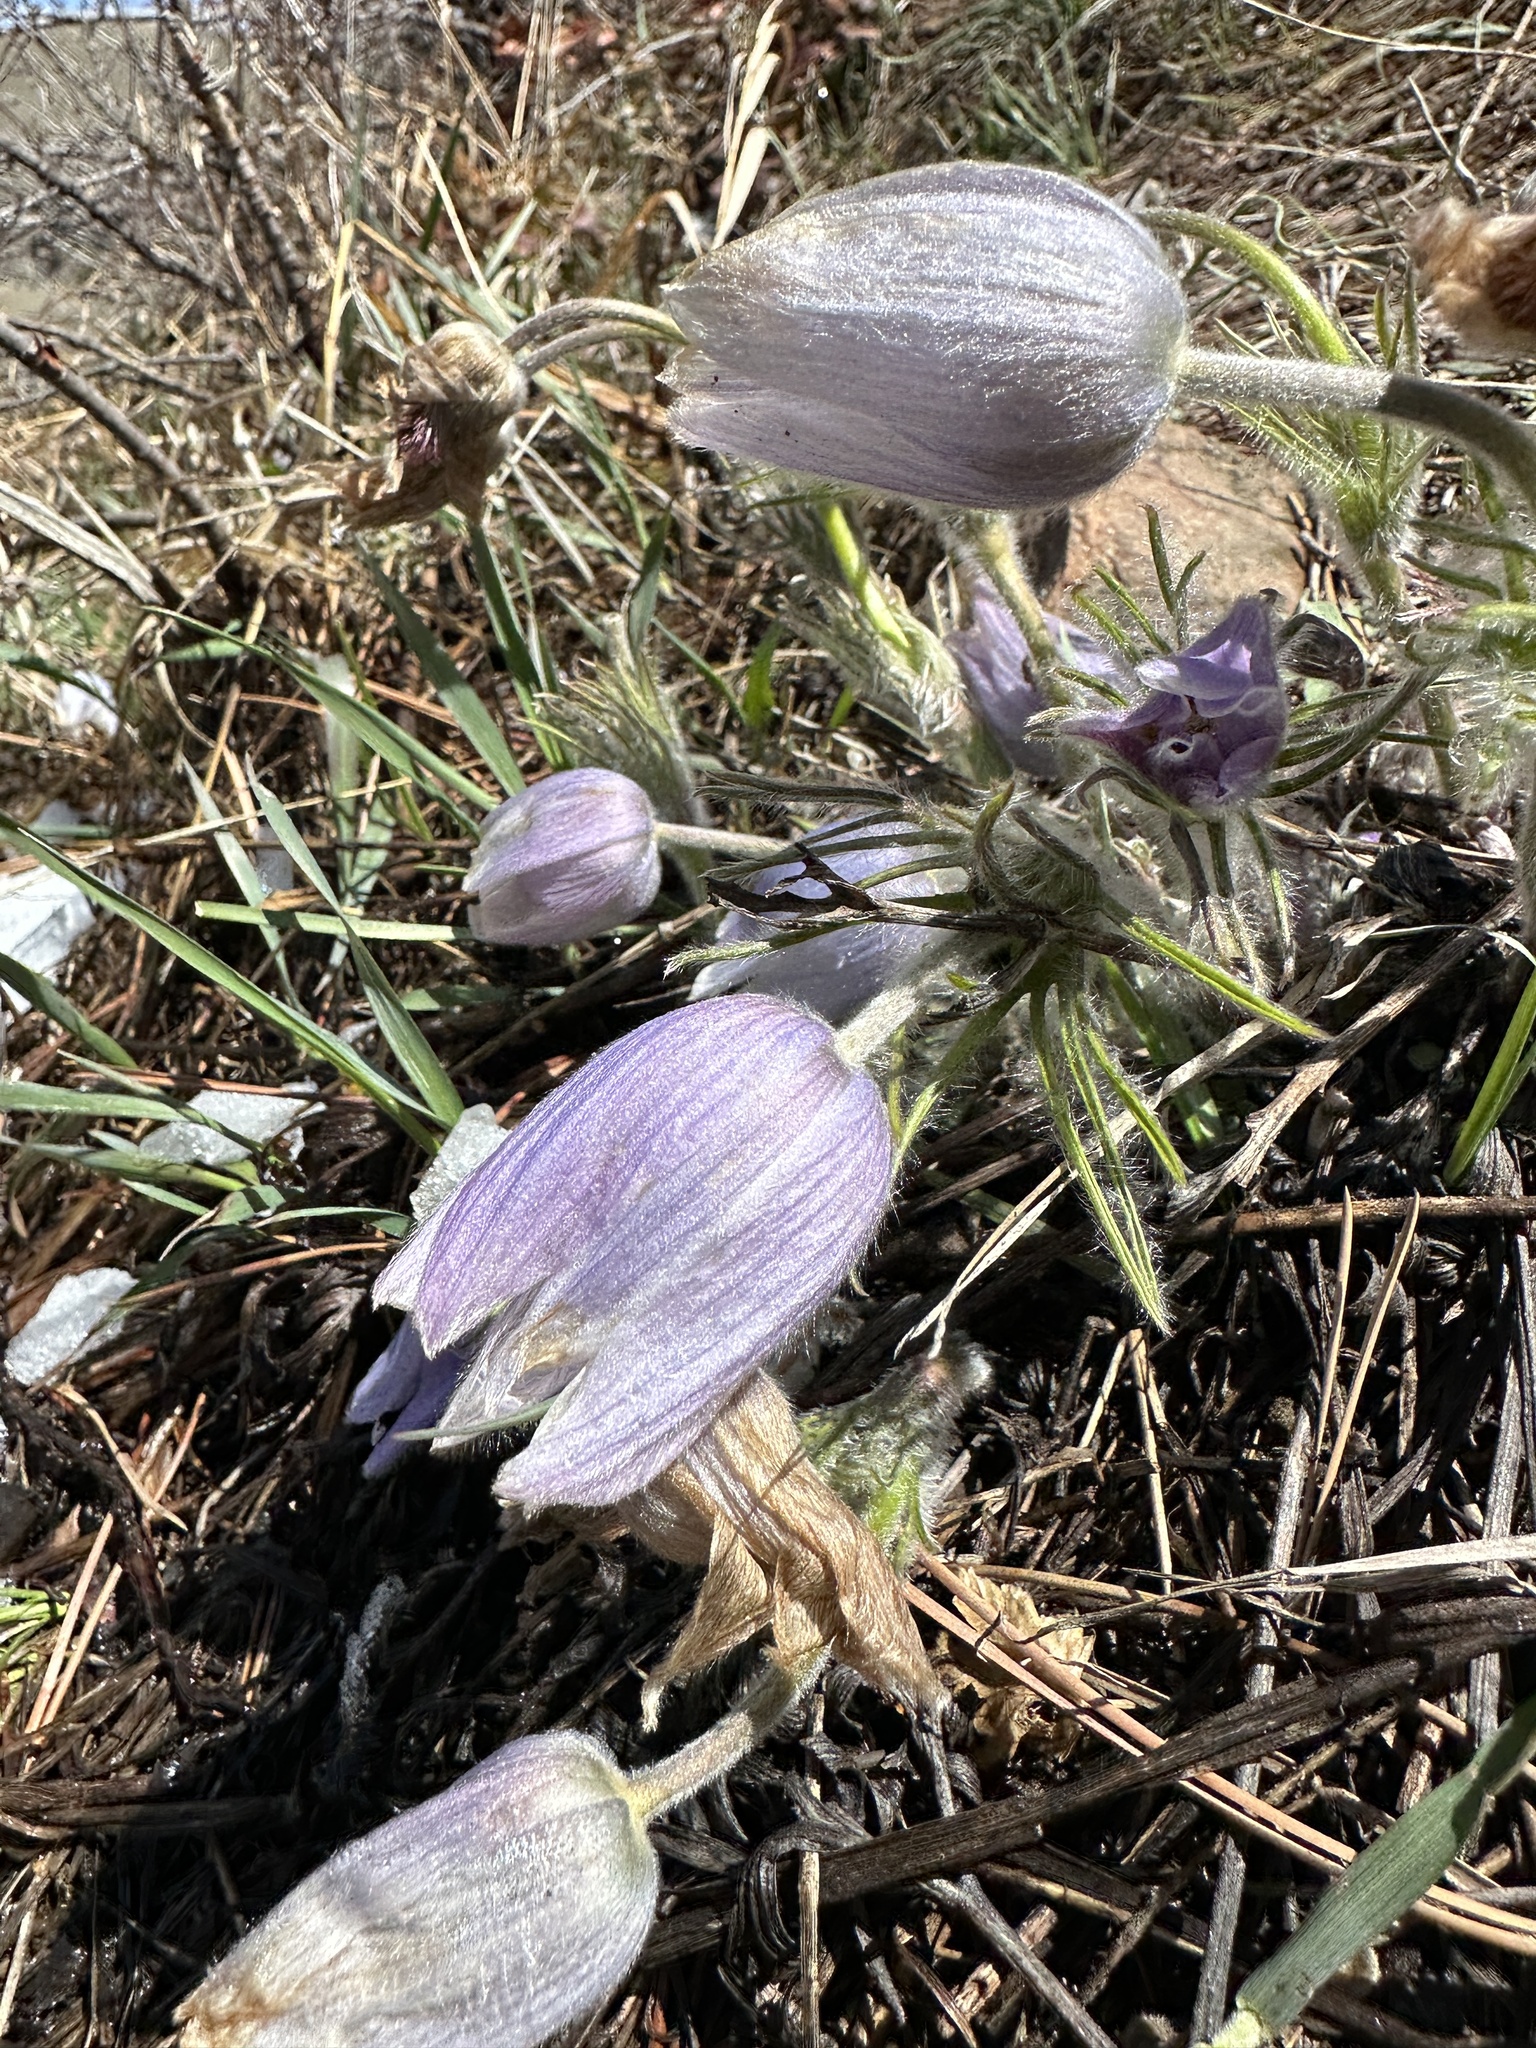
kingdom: Plantae
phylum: Tracheophyta
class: Magnoliopsida
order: Ranunculales
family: Ranunculaceae
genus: Pulsatilla
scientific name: Pulsatilla nuttalliana
